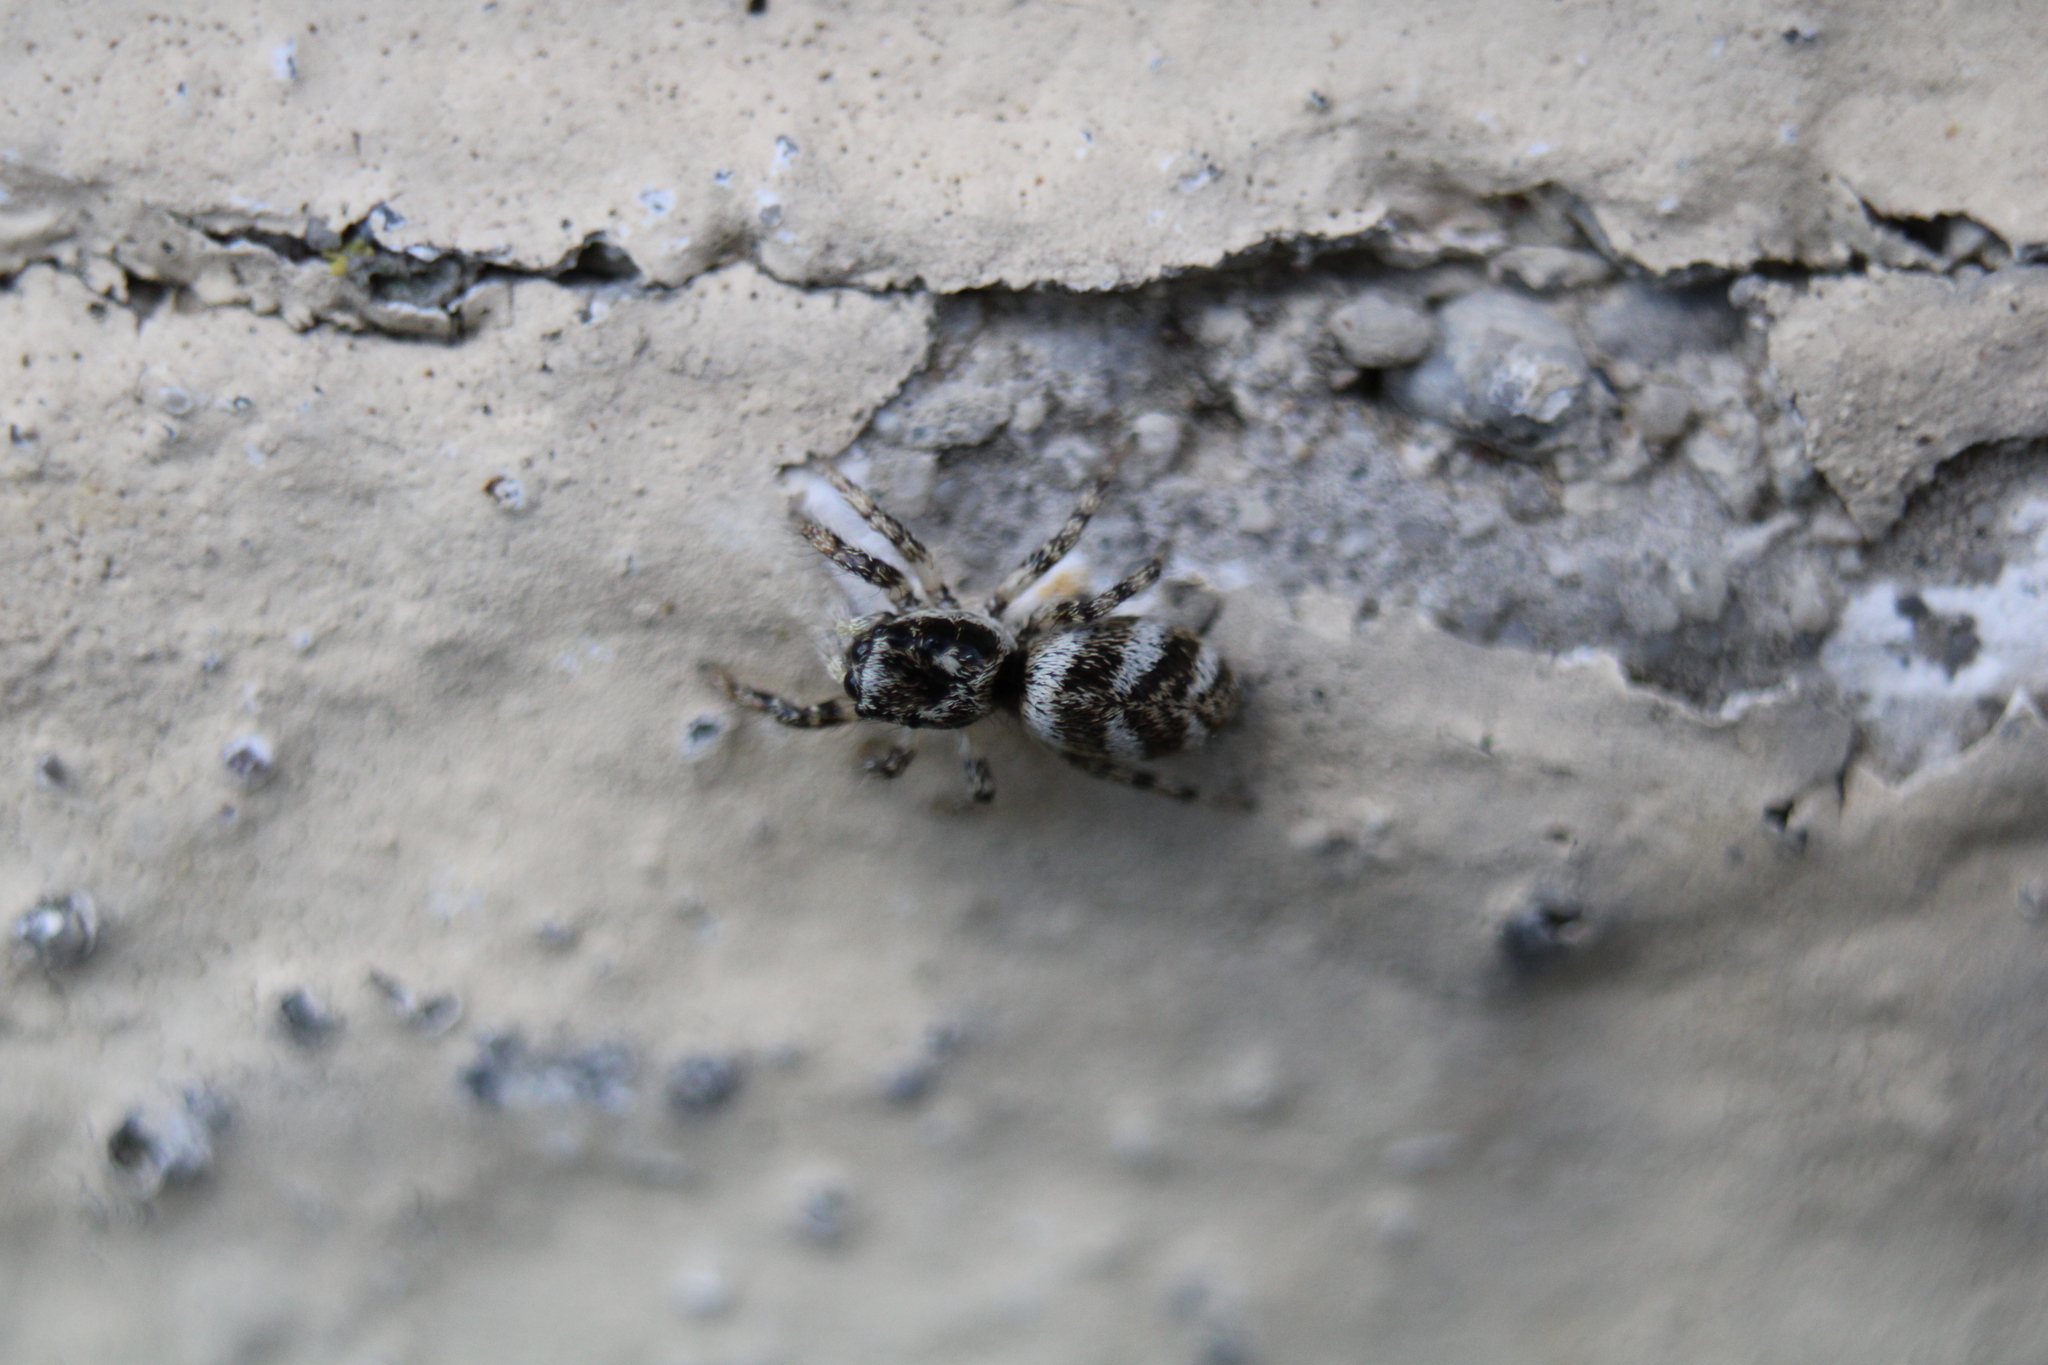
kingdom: Animalia
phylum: Arthropoda
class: Arachnida
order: Araneae
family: Salticidae
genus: Salticus
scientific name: Salticus scenicus
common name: Zebra jumper
